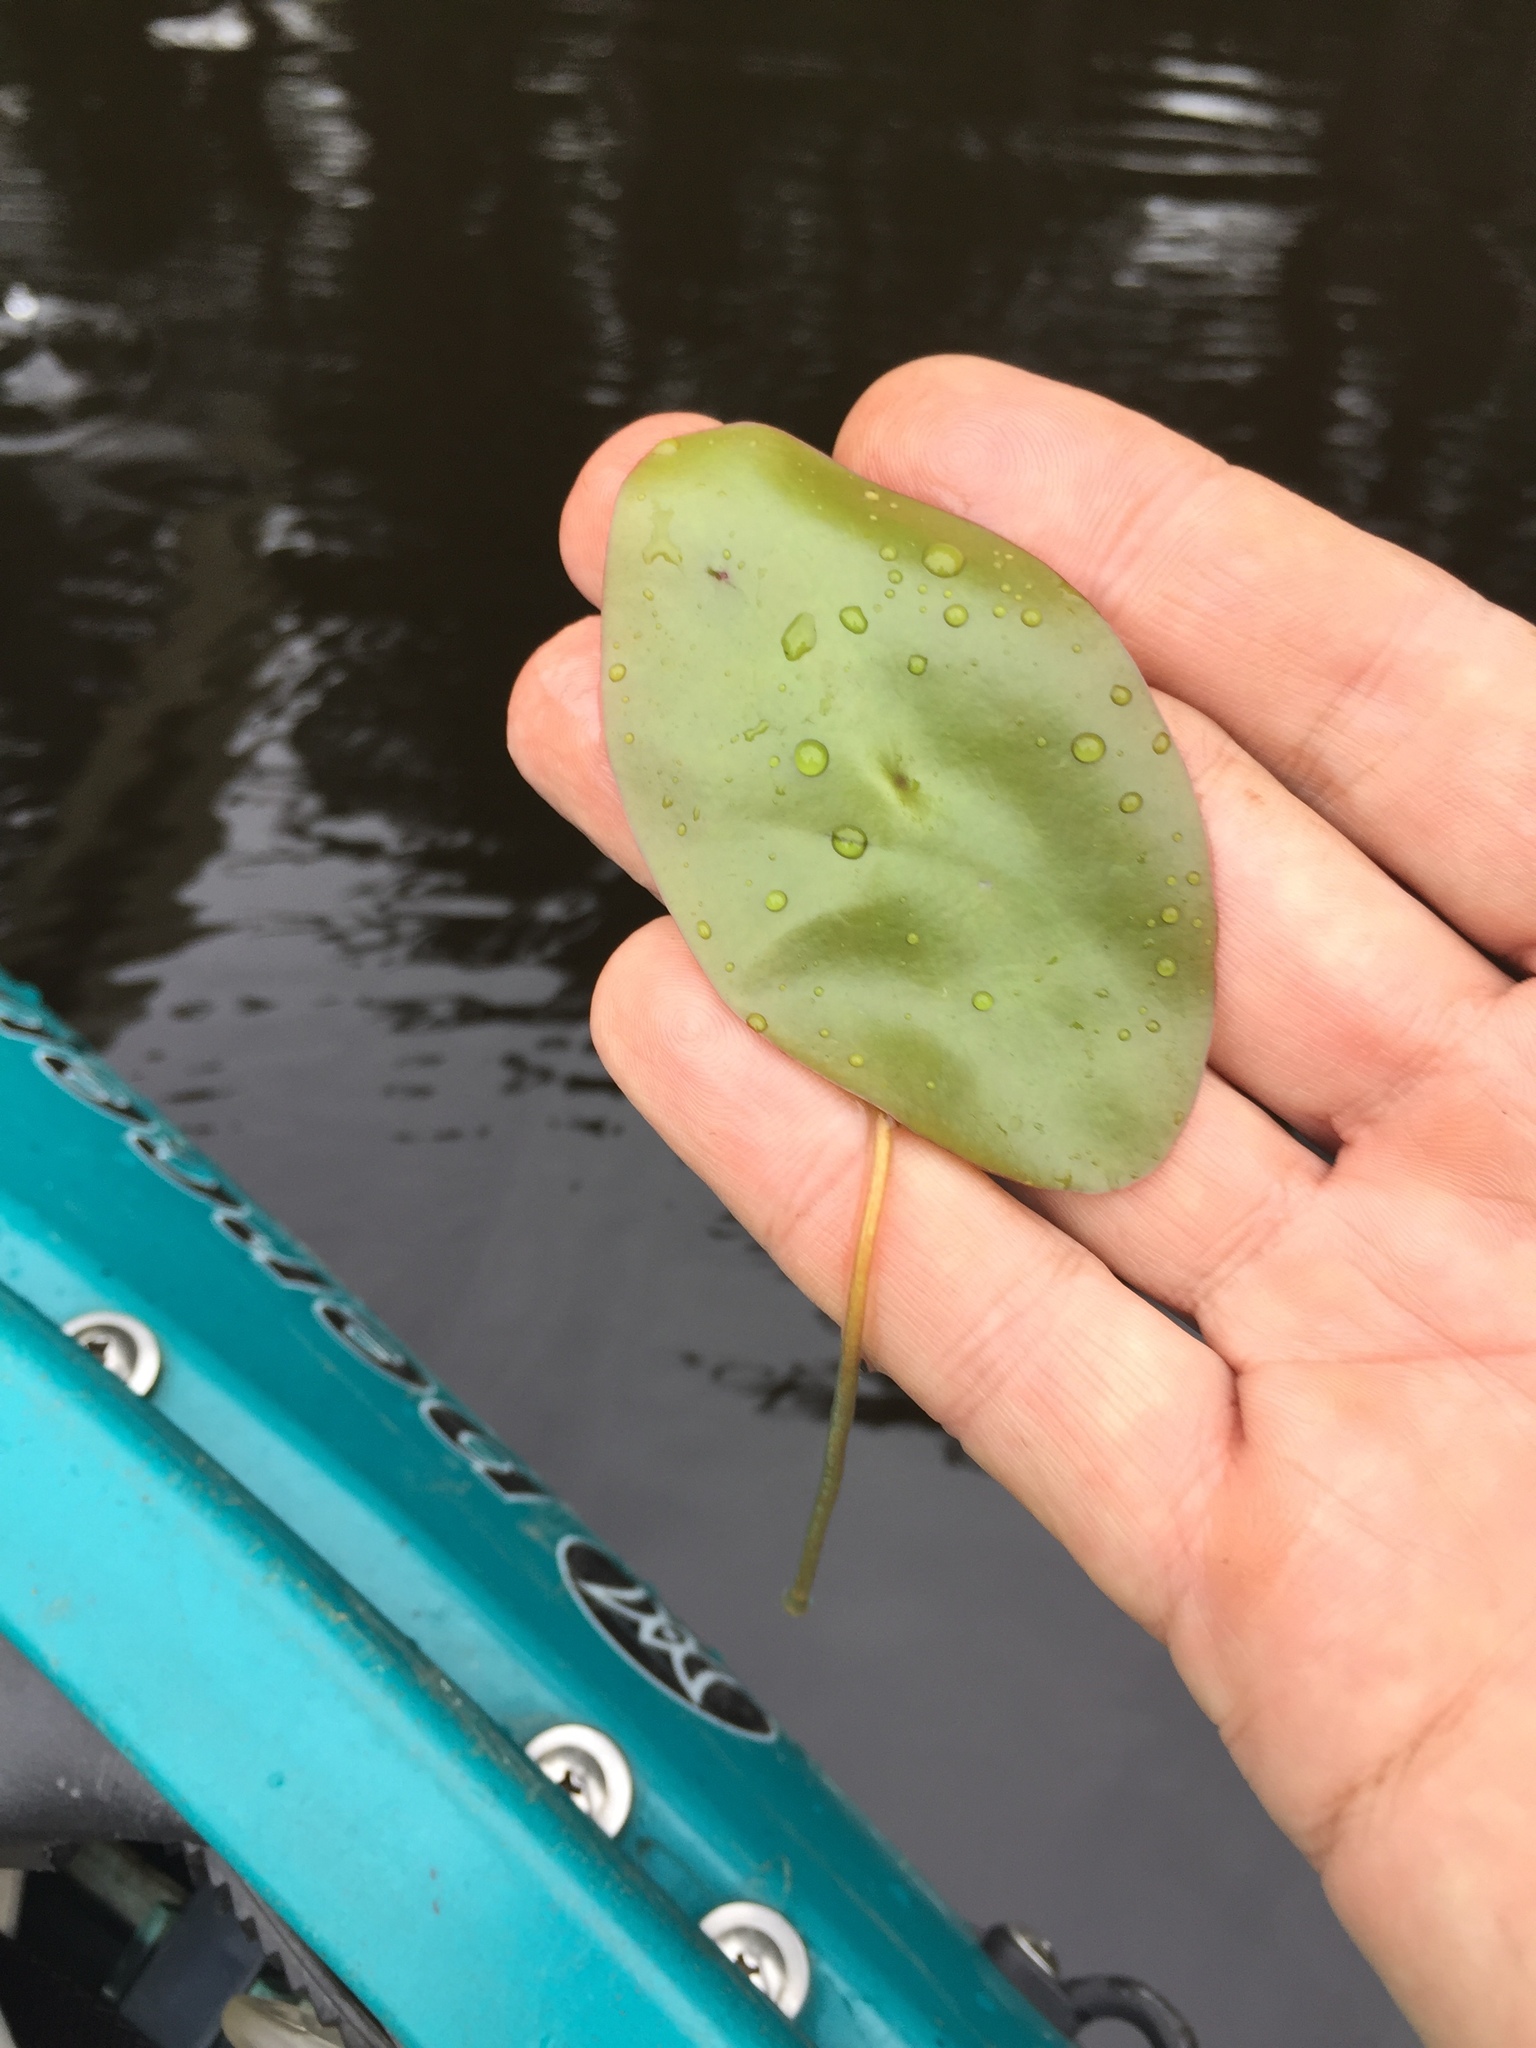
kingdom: Plantae
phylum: Tracheophyta
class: Magnoliopsida
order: Nymphaeales
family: Cabombaceae
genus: Brasenia
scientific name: Brasenia schreberi
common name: Water-shield
